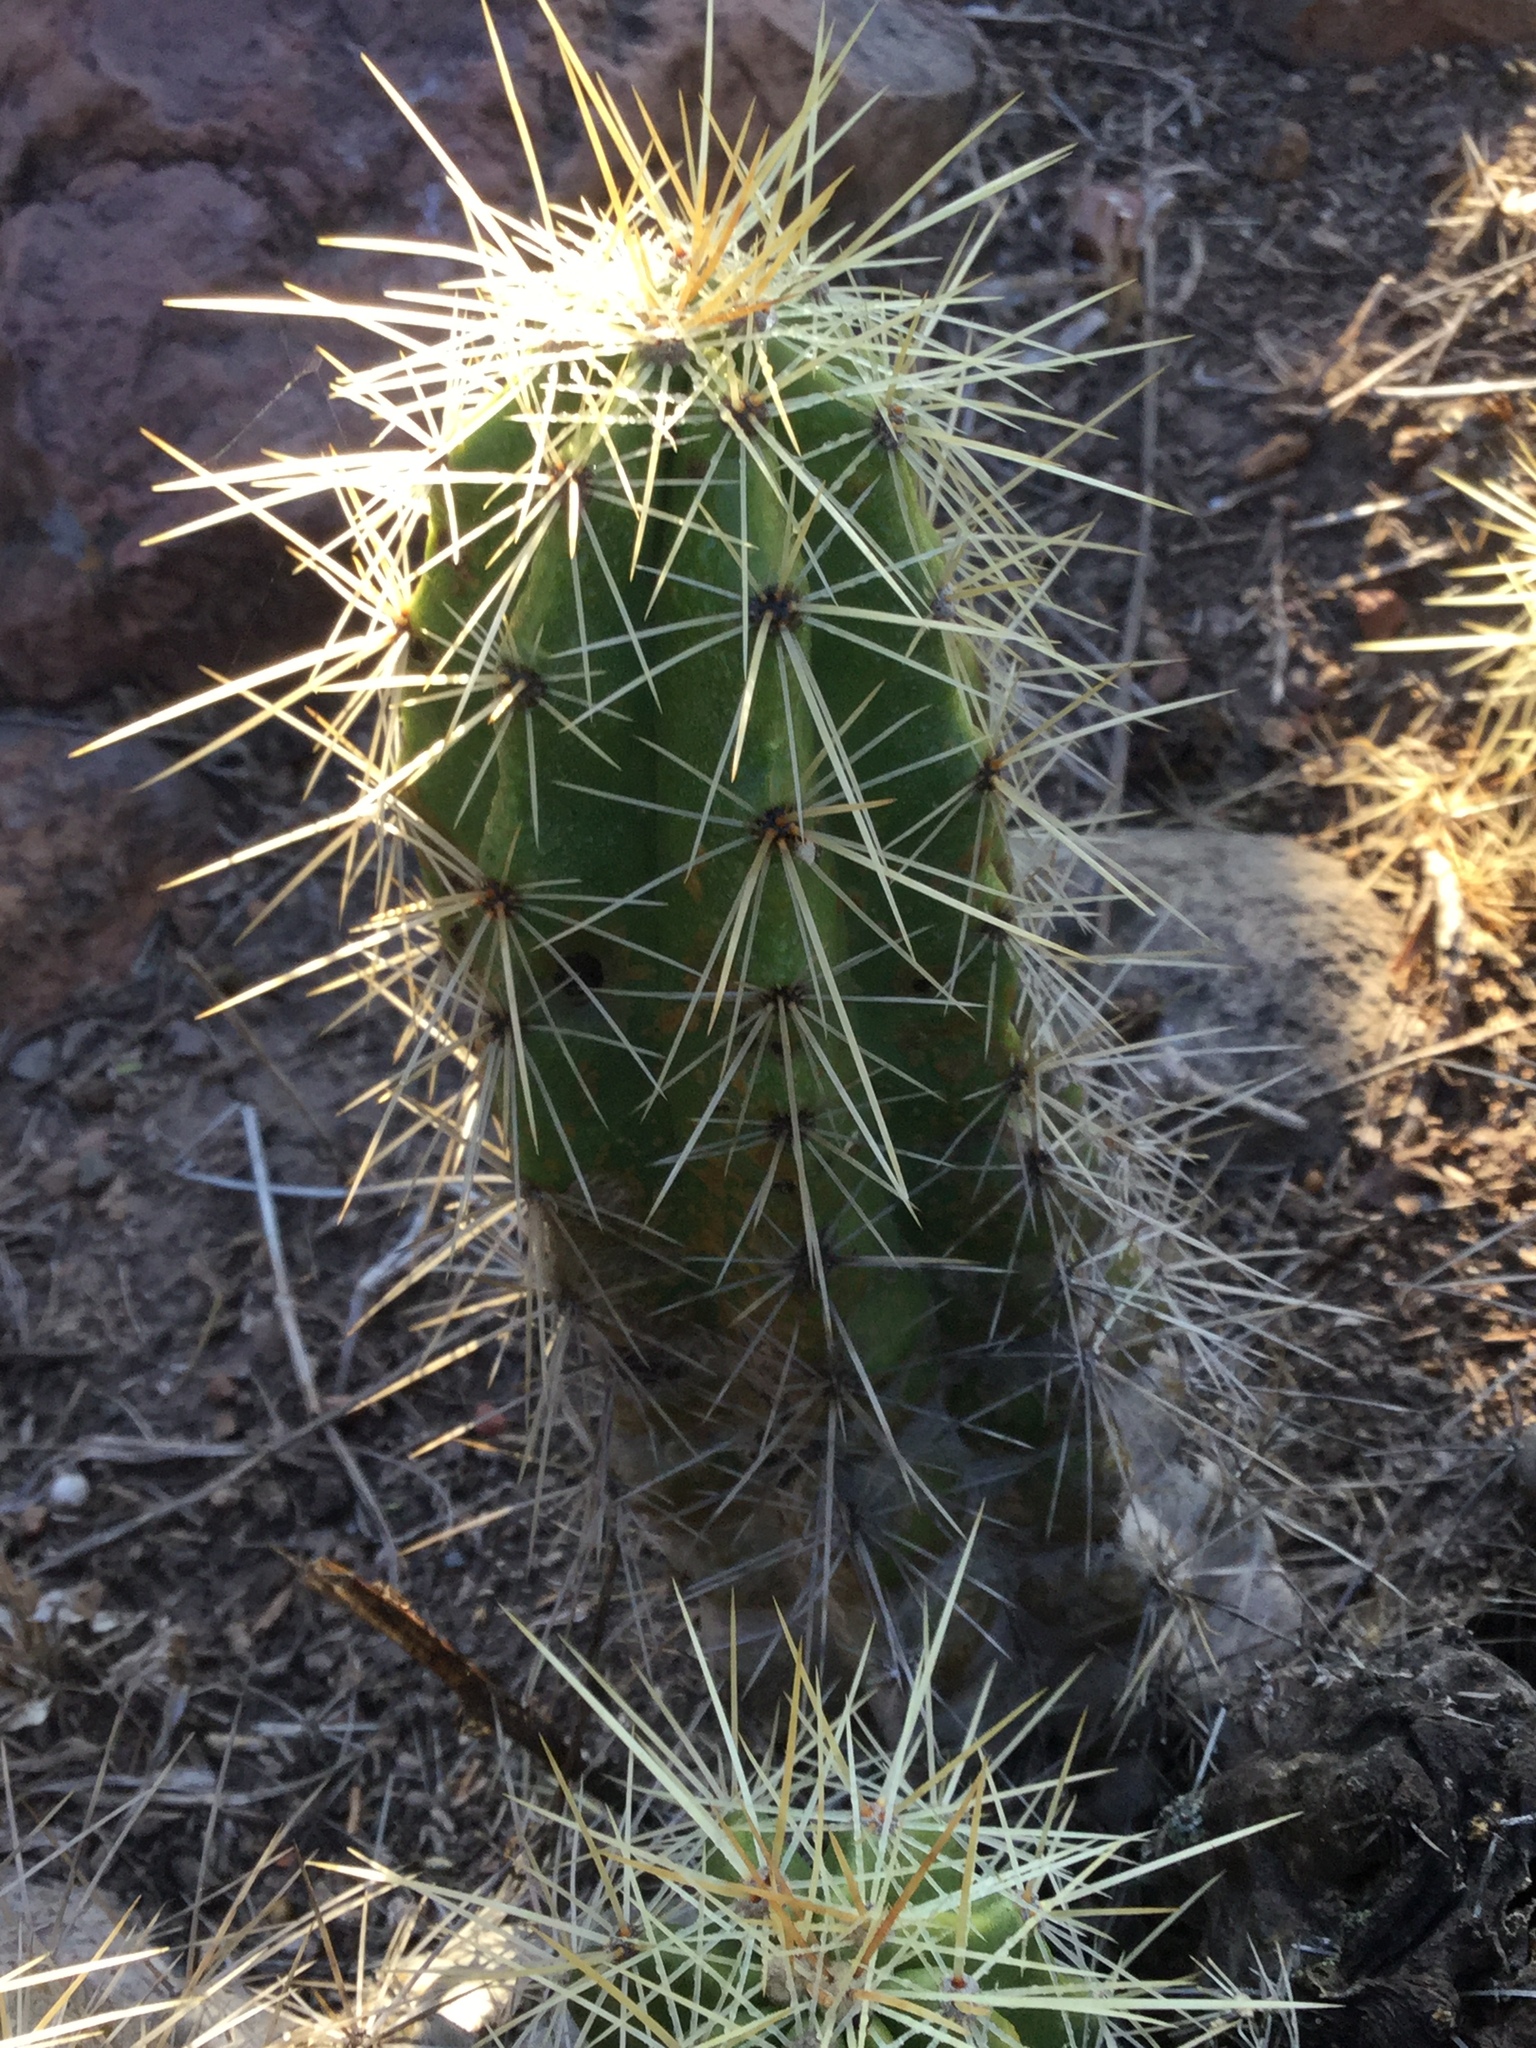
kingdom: Plantae
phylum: Tracheophyta
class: Magnoliopsida
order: Caryophyllales
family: Cactaceae
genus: Echinocereus
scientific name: Echinocereus cinerascens
